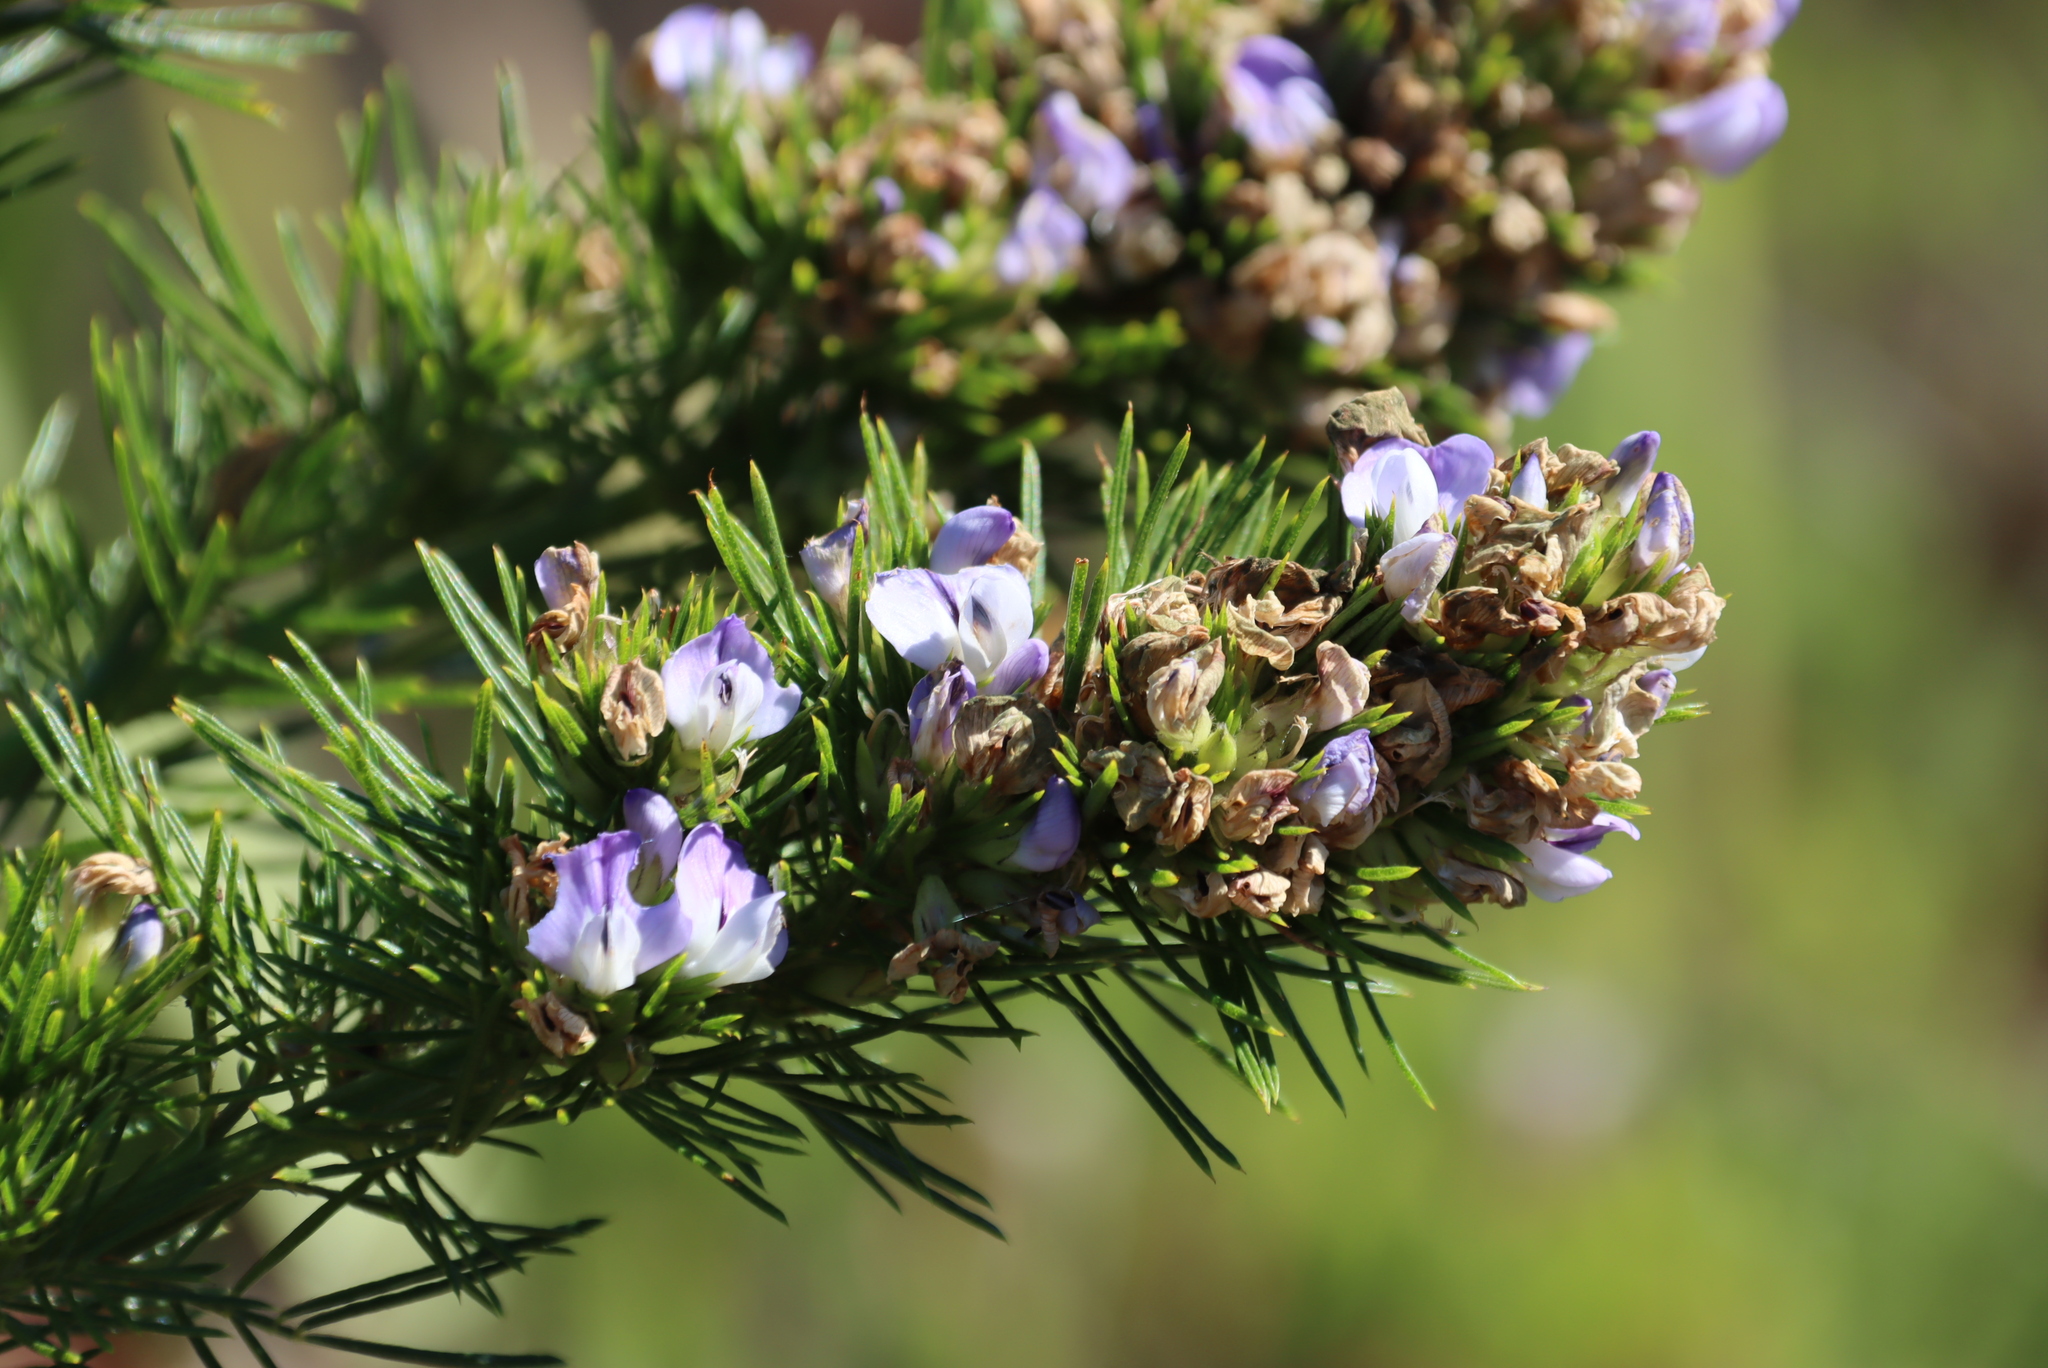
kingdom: Plantae
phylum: Tracheophyta
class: Magnoliopsida
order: Fabales
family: Fabaceae
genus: Psoralea
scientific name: Psoralea pinnata
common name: African scurfpea
